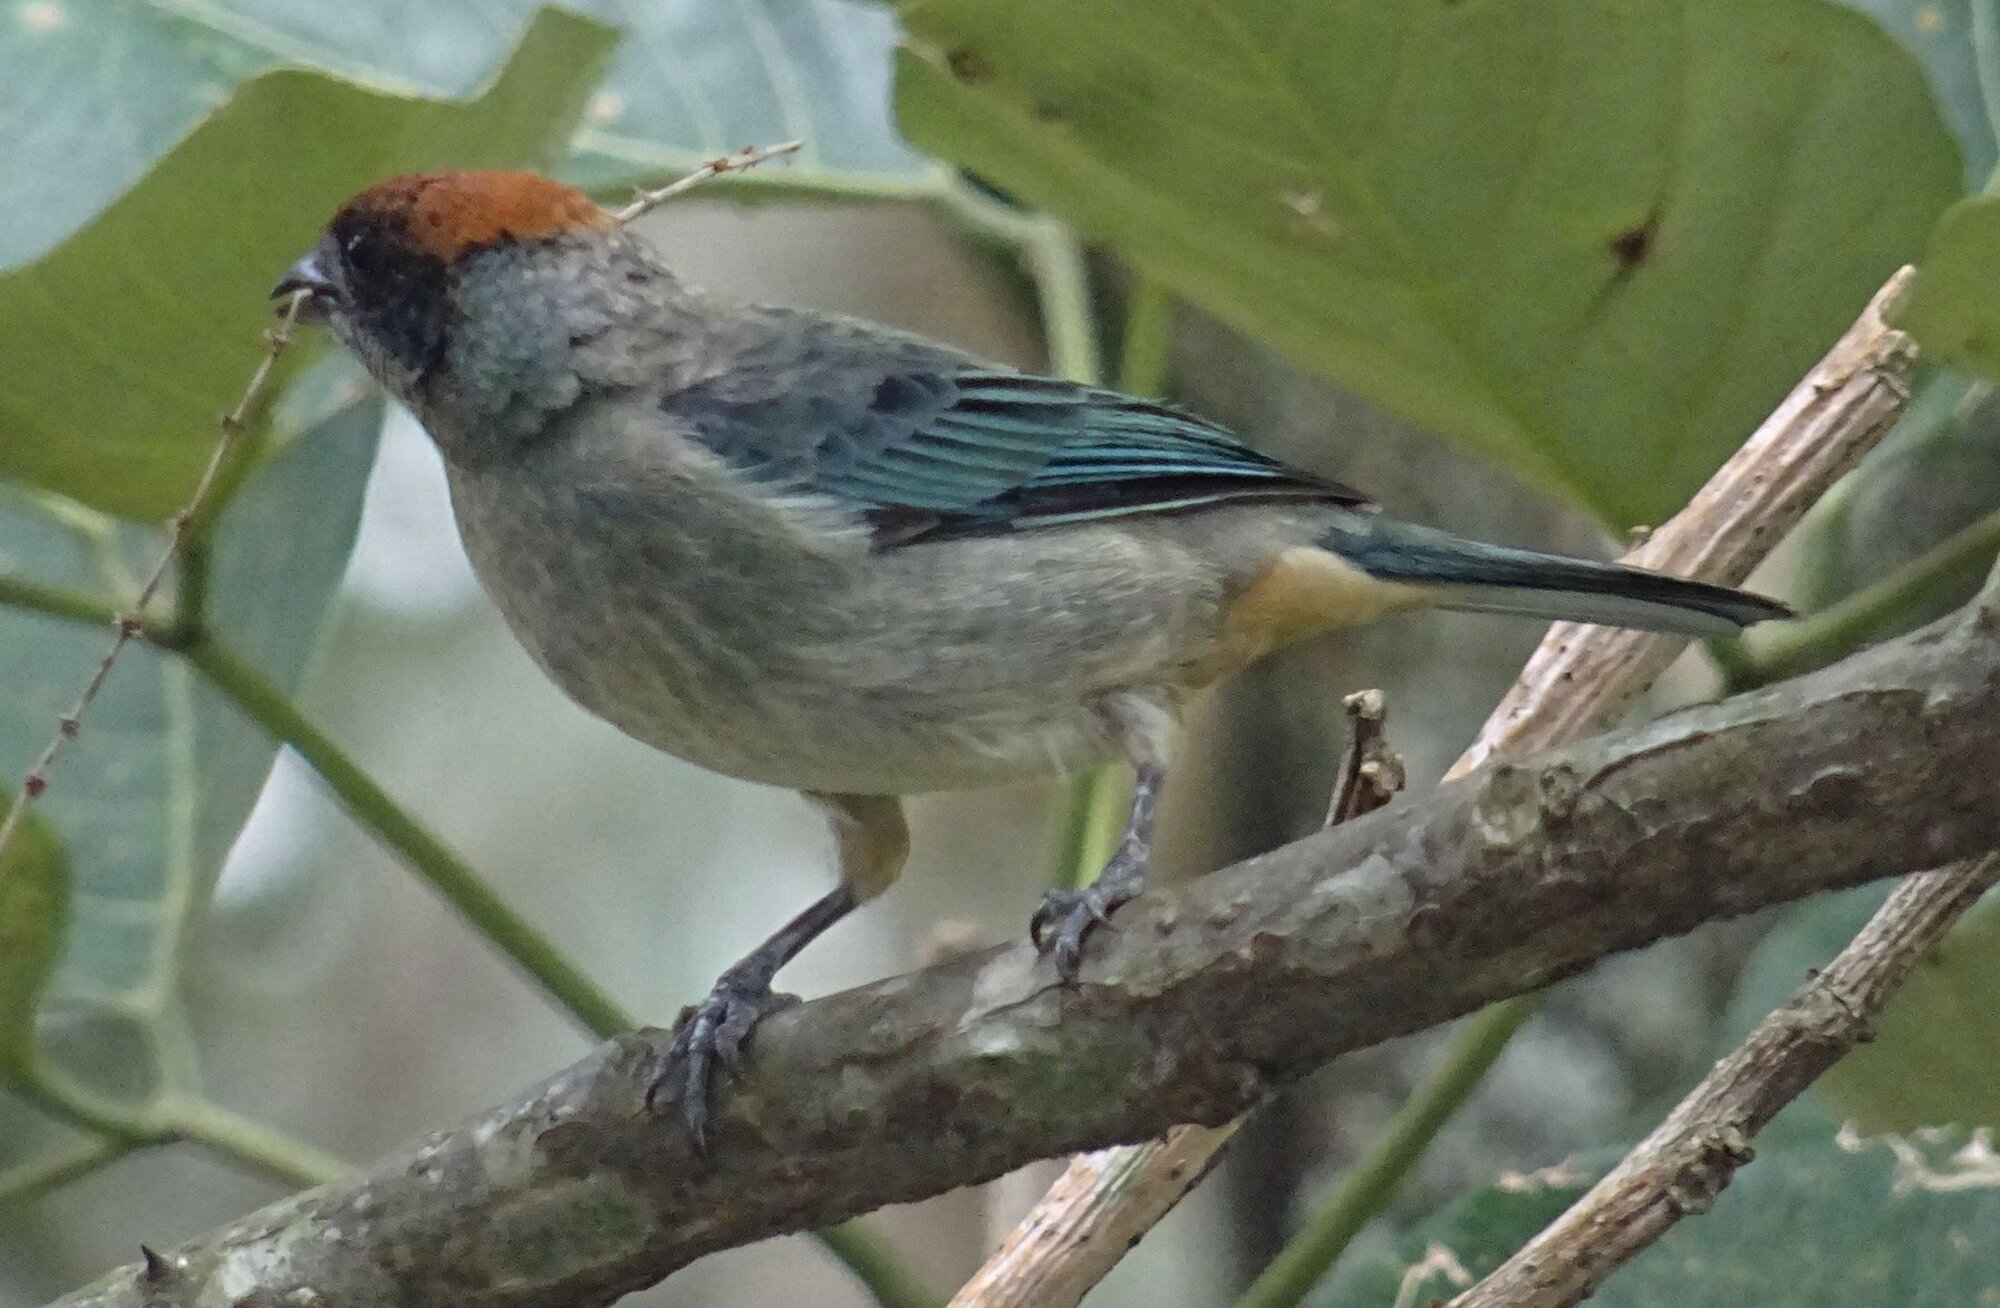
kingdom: Animalia
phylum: Chordata
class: Aves
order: Passeriformes
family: Thraupidae
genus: Stilpnia
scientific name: Stilpnia vitriolina
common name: Scrub tanager
